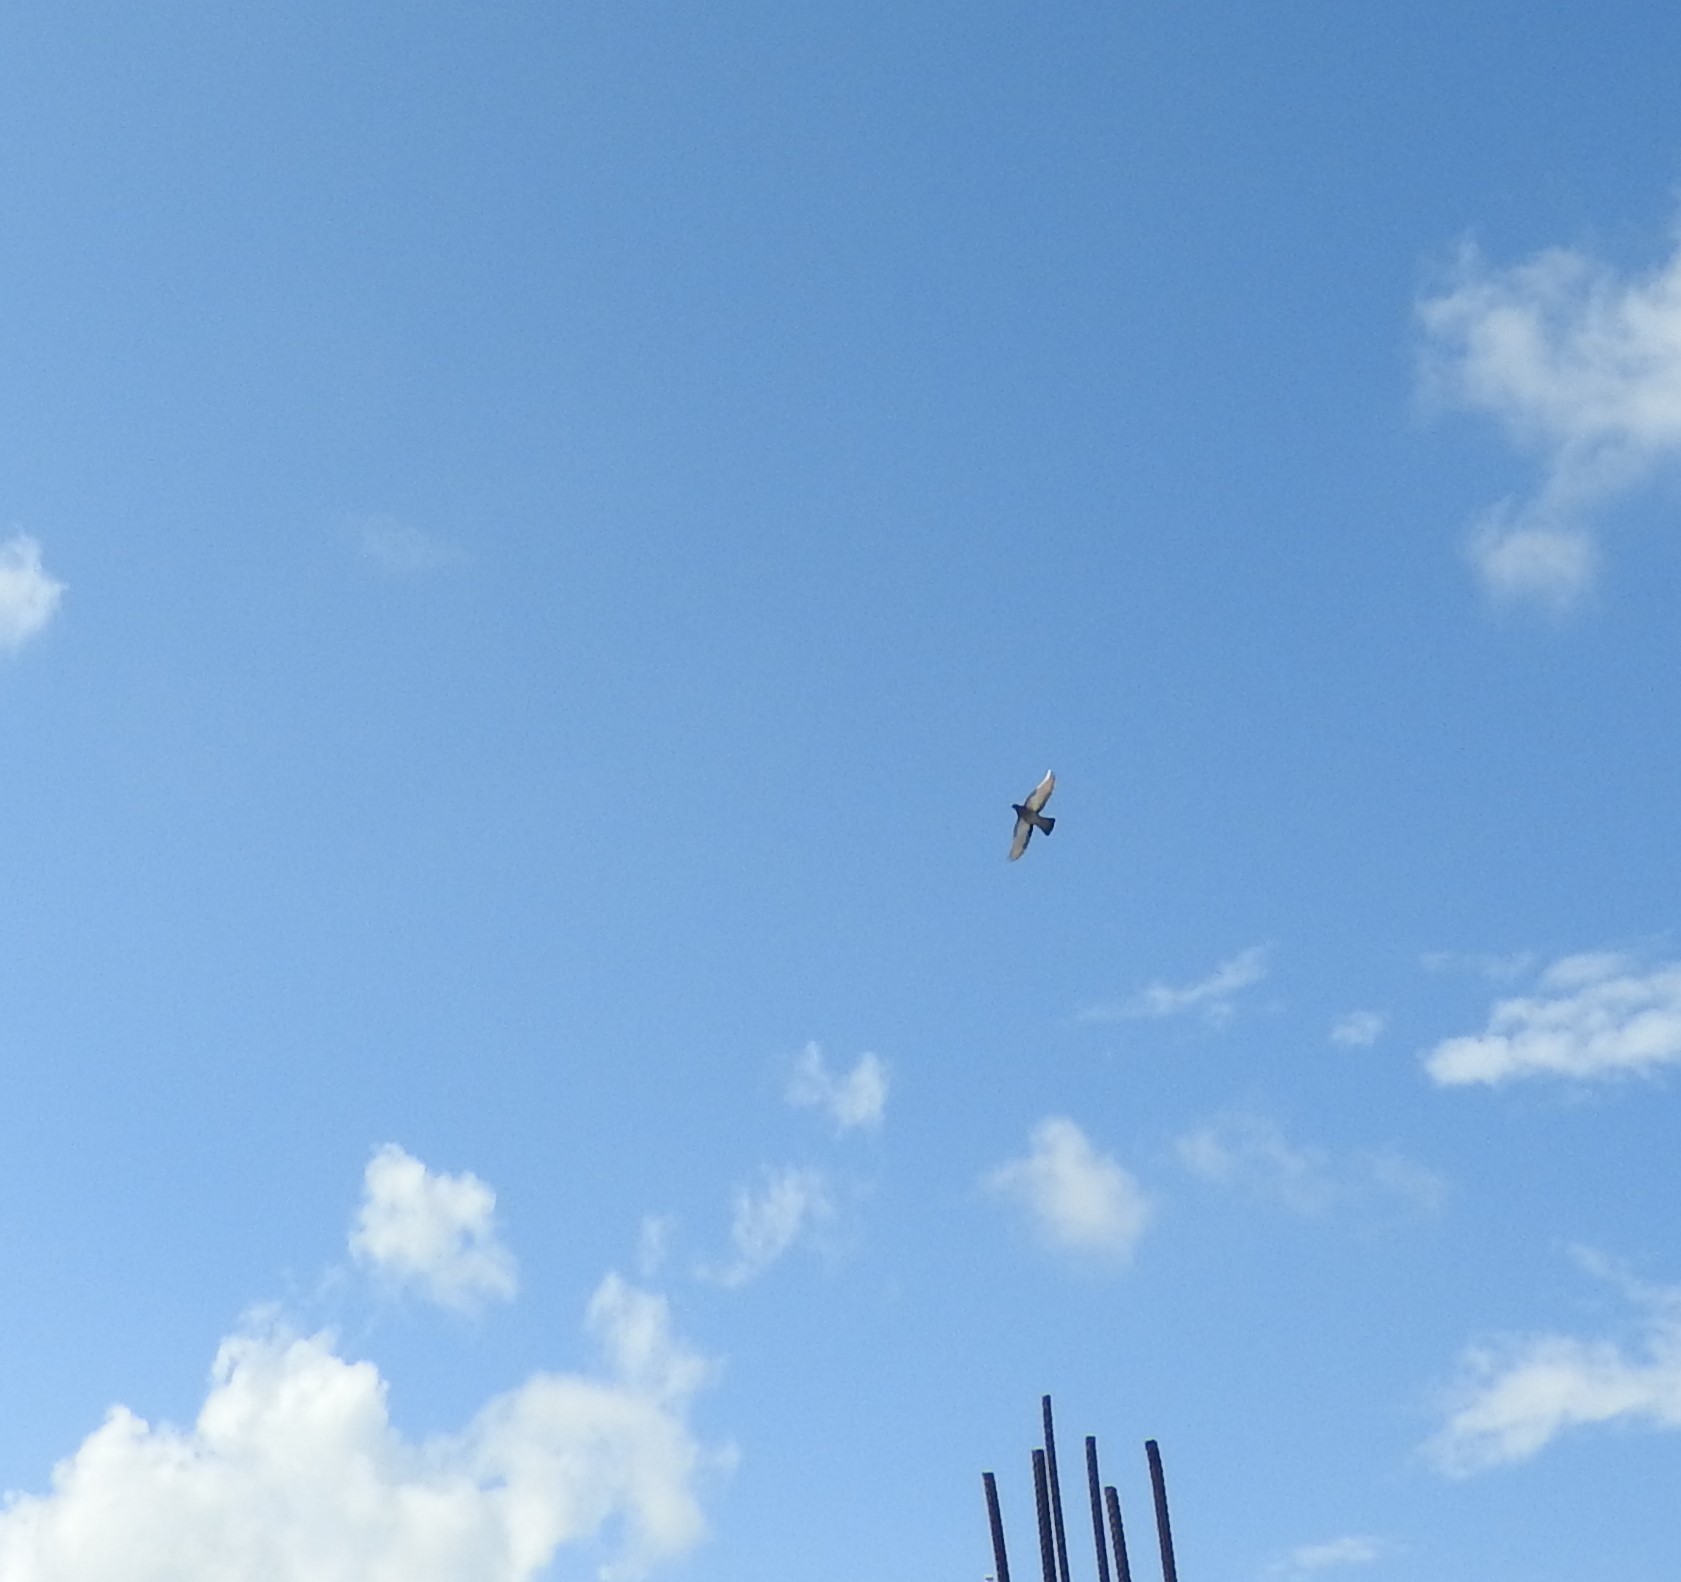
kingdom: Animalia
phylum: Chordata
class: Aves
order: Columbiformes
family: Columbidae
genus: Columba
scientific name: Columba livia
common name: Rock pigeon
